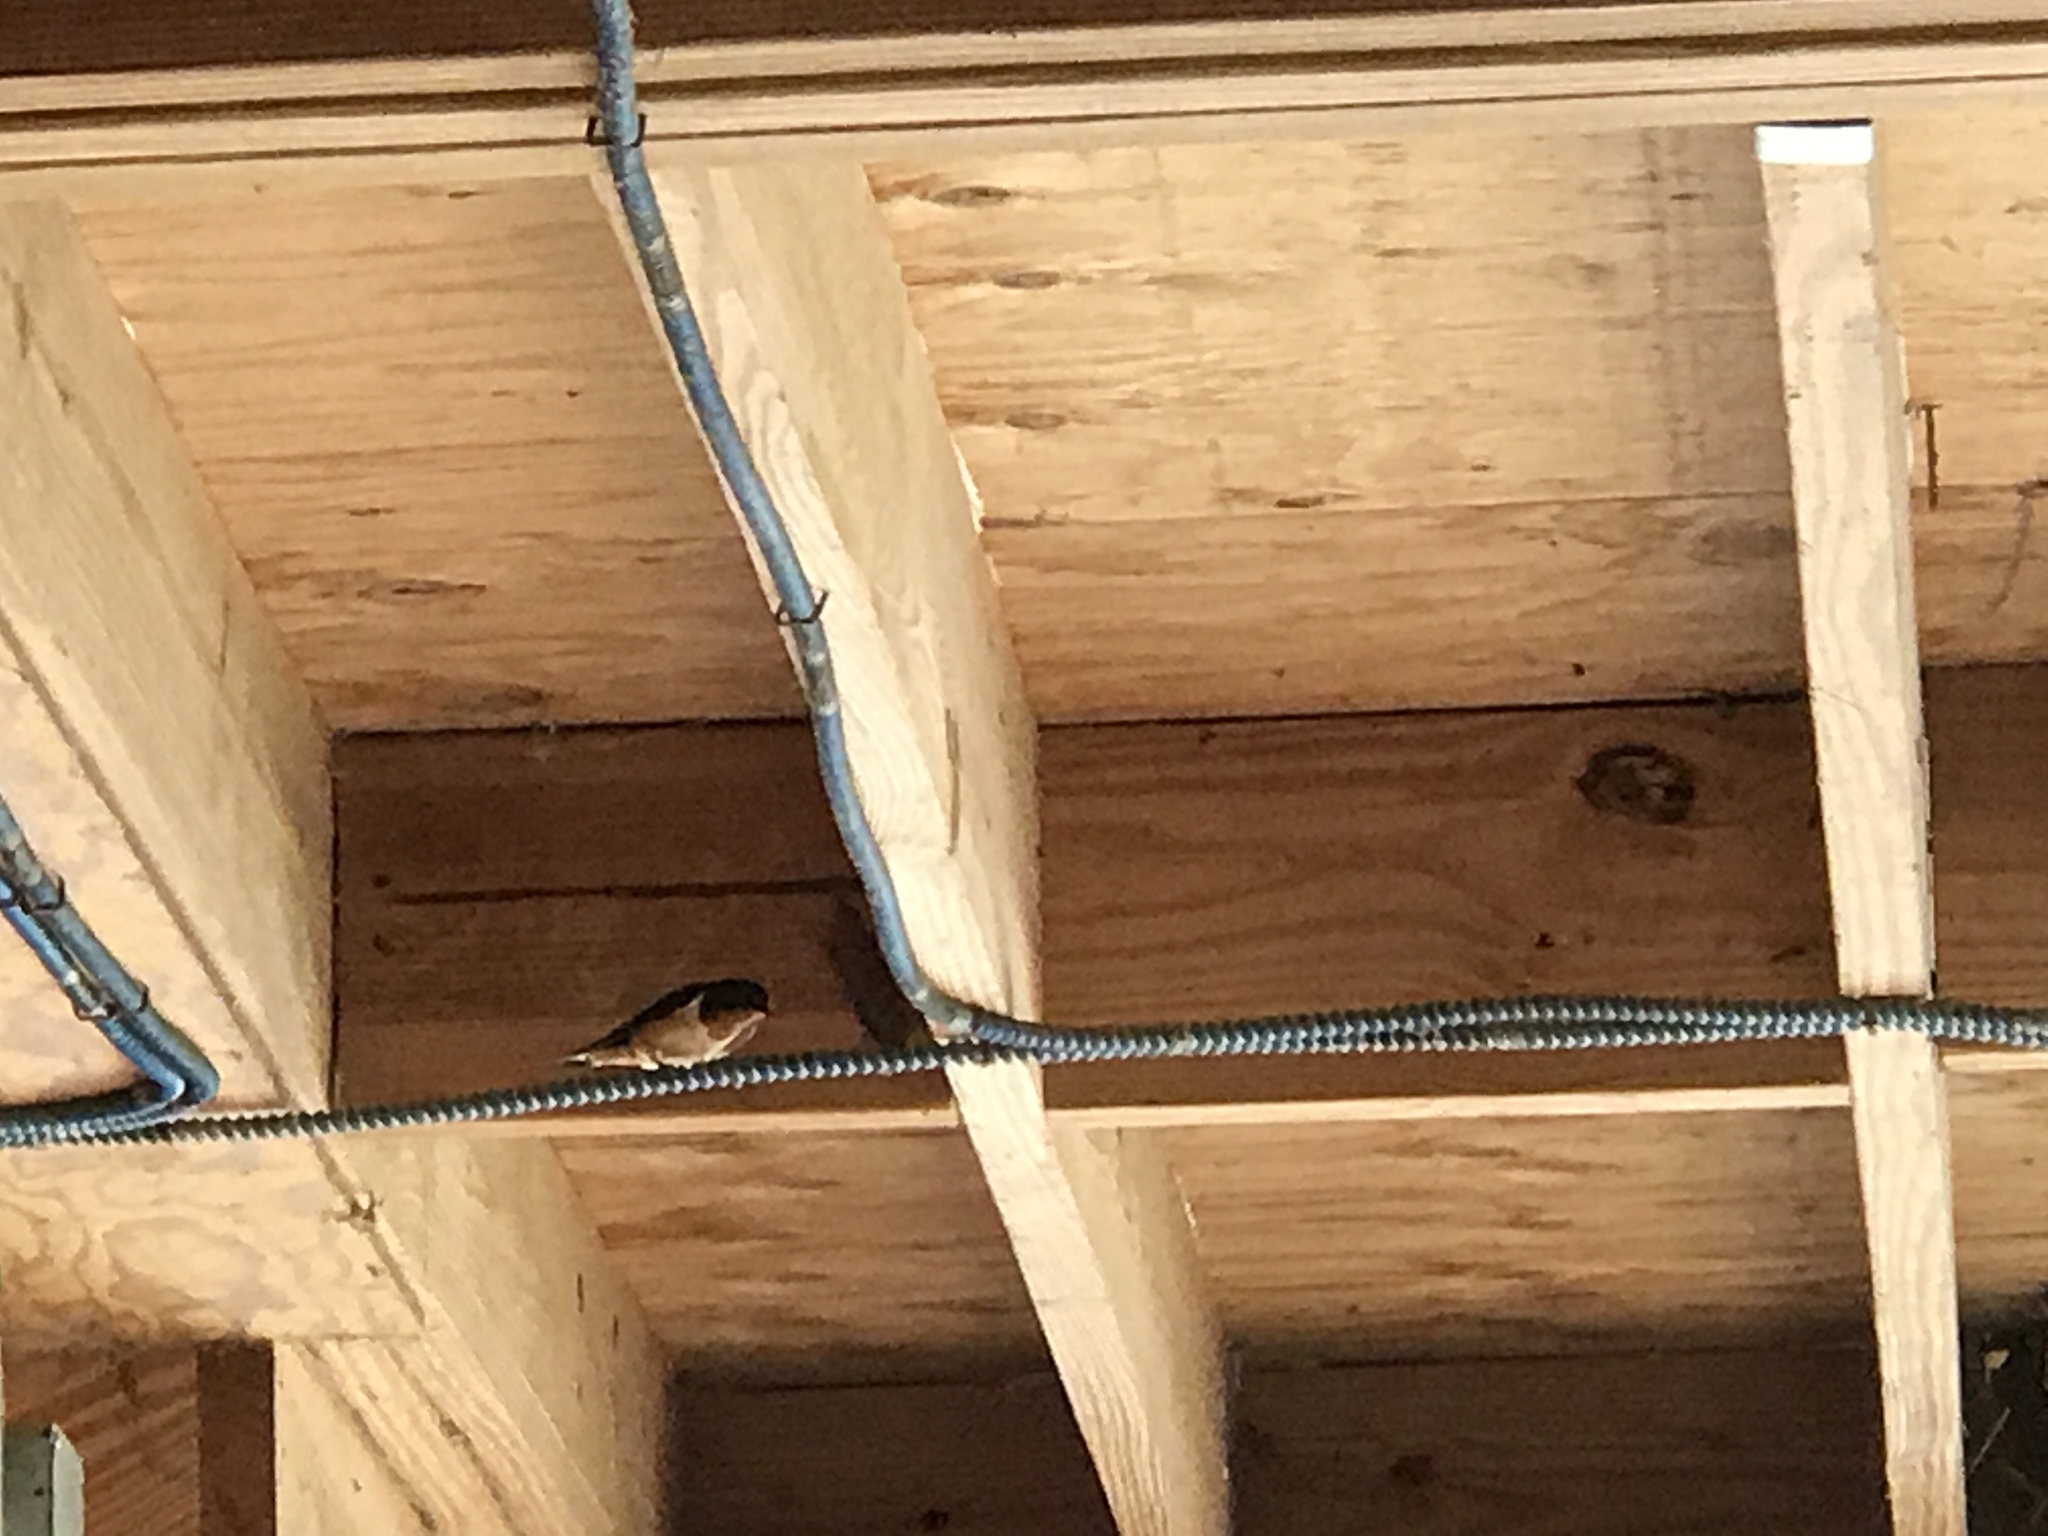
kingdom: Animalia
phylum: Chordata
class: Aves
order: Passeriformes
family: Hirundinidae
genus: Hirundo
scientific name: Hirundo rustica
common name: Barn swallow
